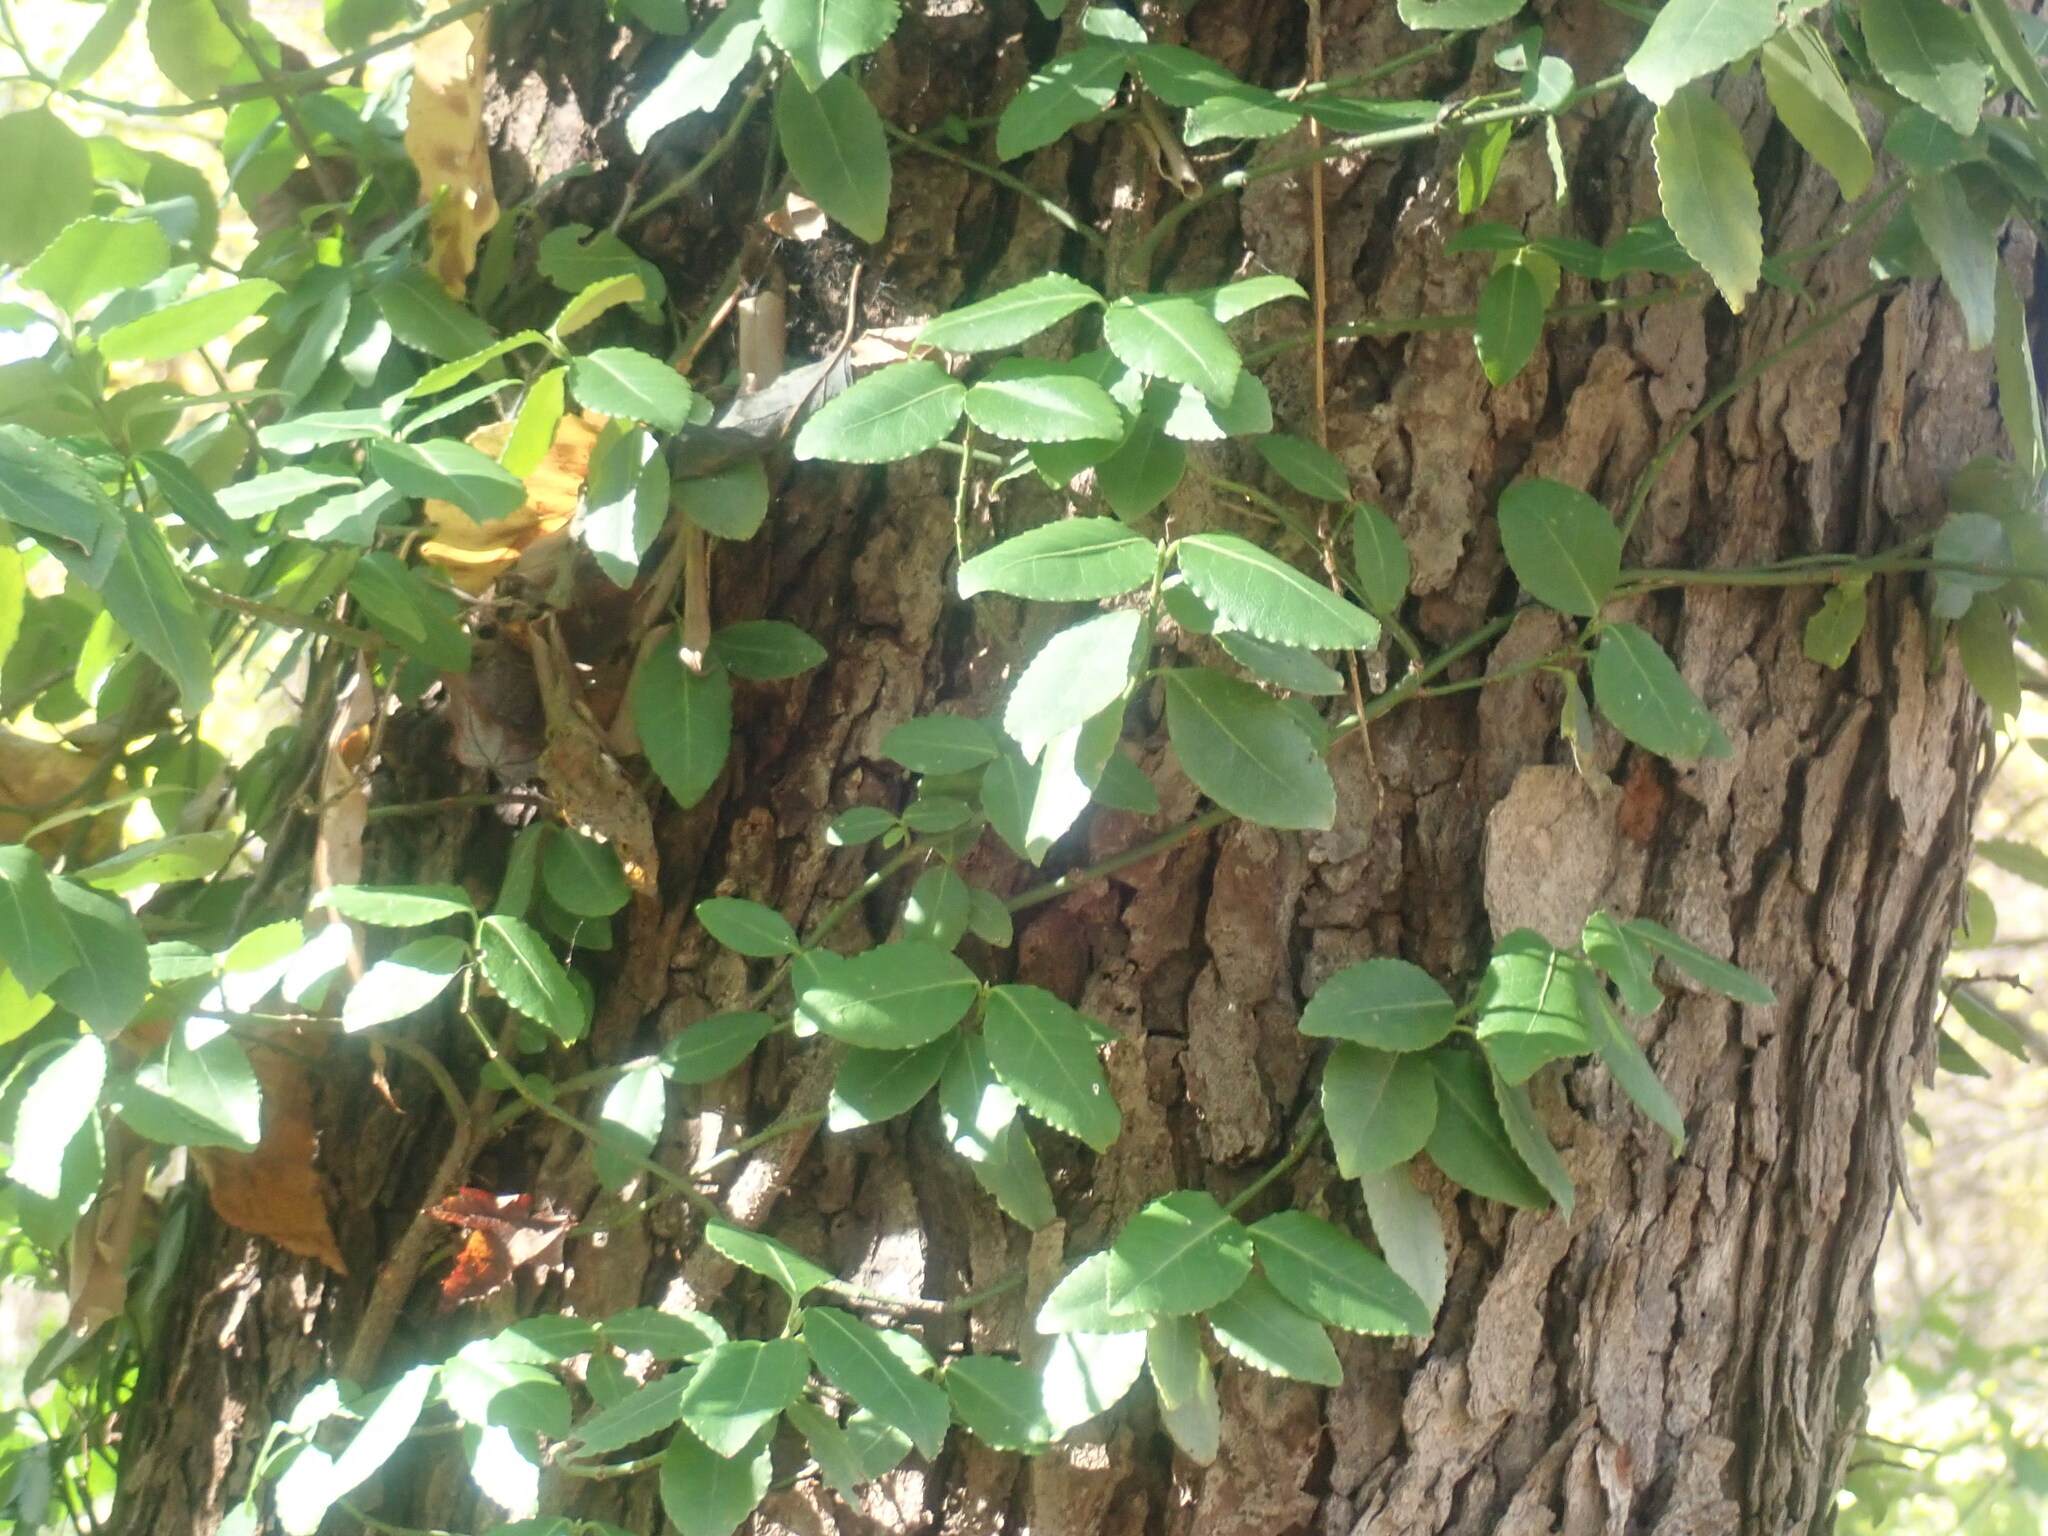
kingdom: Plantae
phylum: Tracheophyta
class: Magnoliopsida
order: Celastrales
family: Celastraceae
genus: Euonymus
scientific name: Euonymus fortunei
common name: Climbing euonymus
